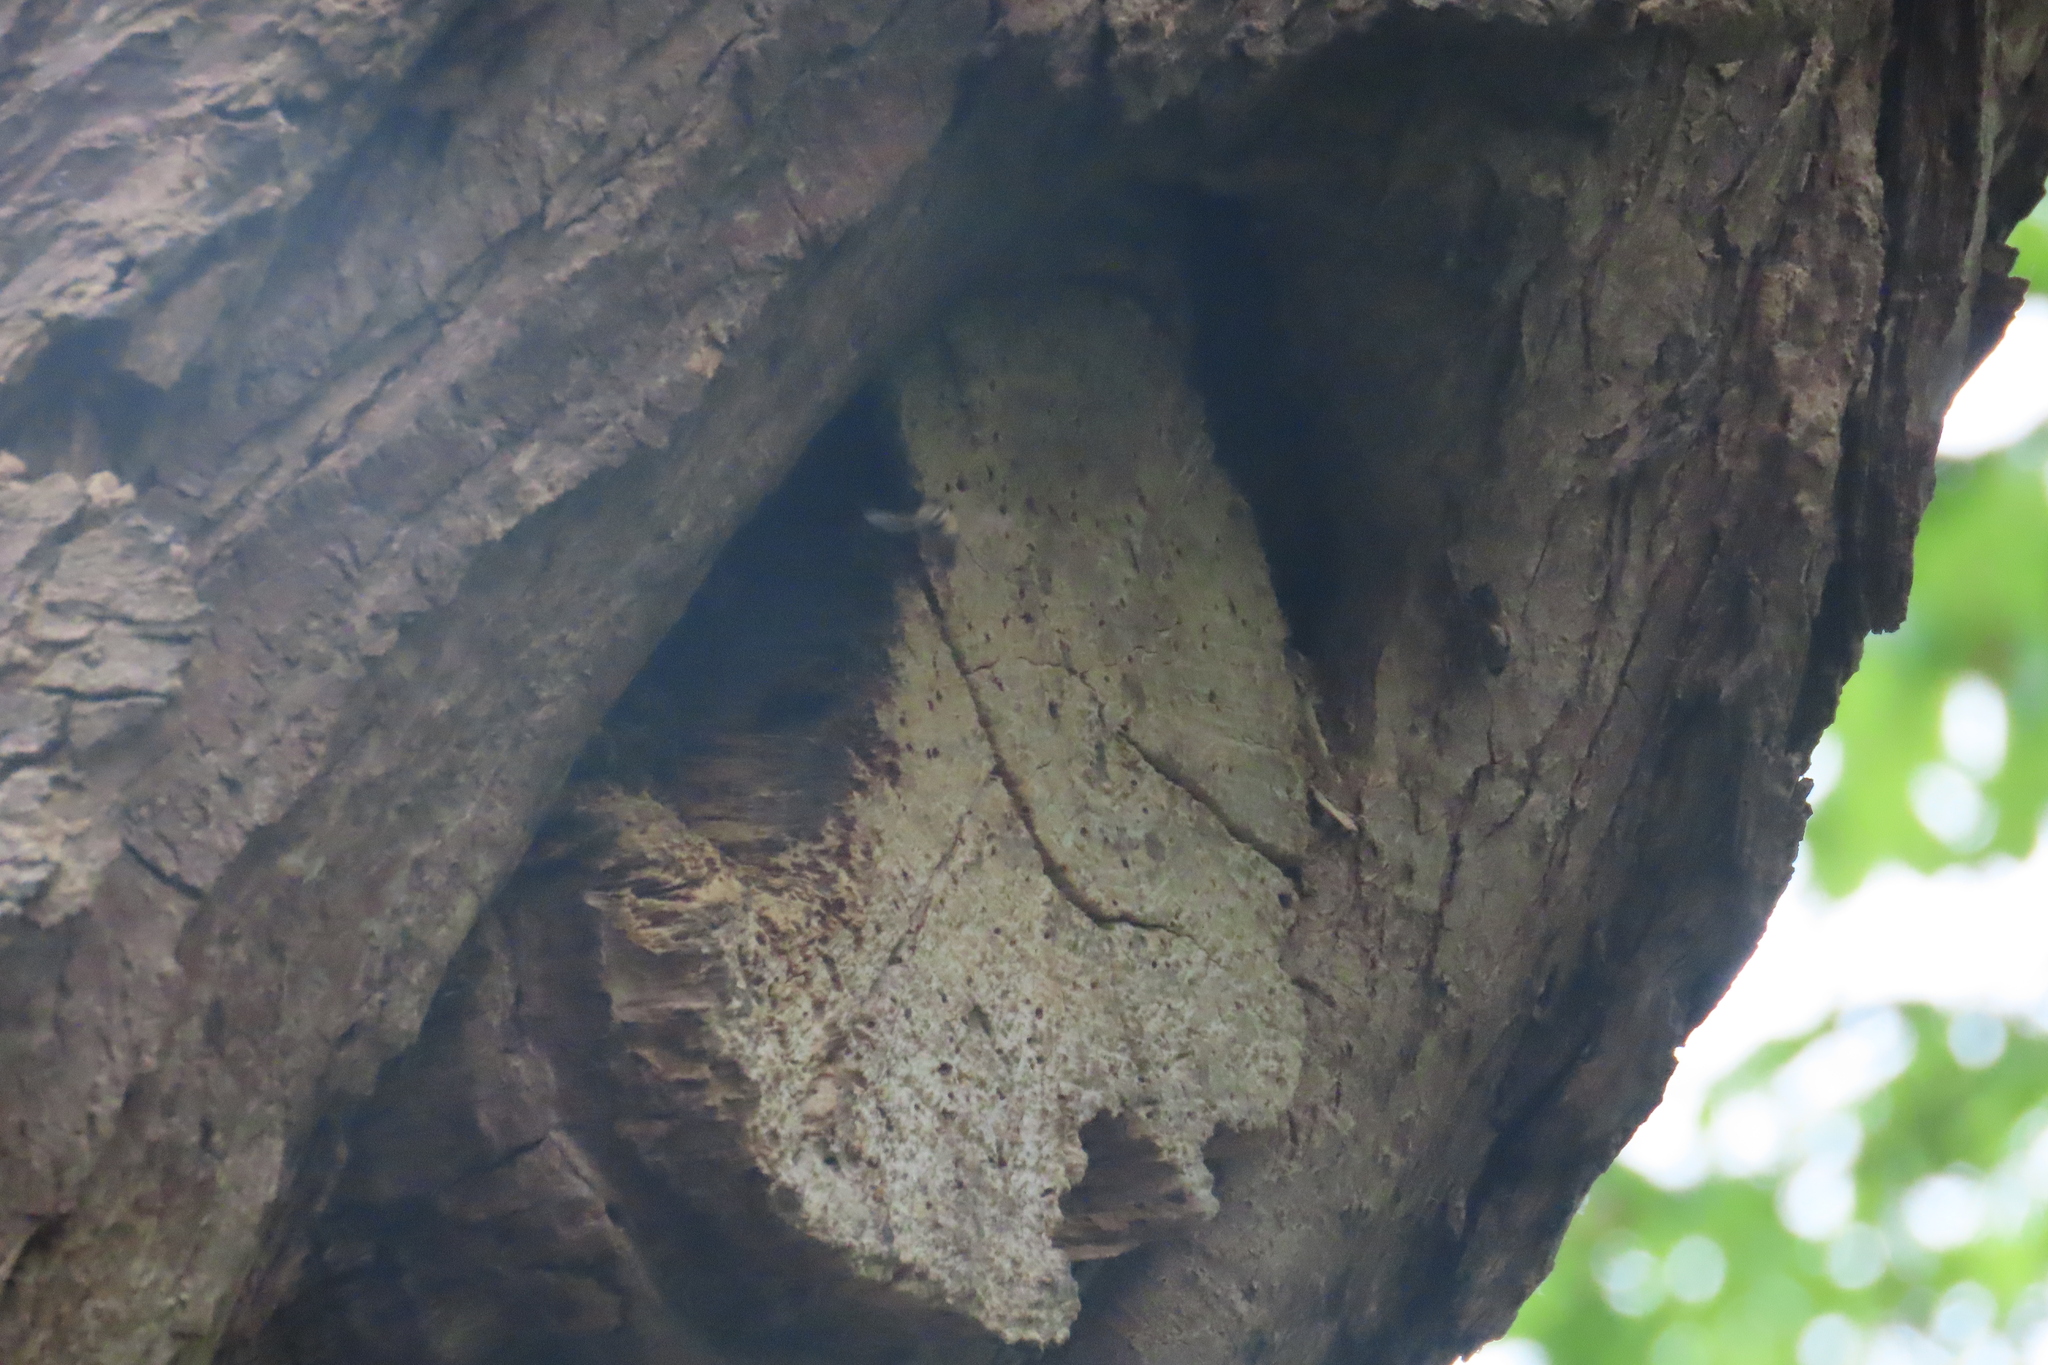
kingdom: Animalia
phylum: Arthropoda
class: Insecta
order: Hymenoptera
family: Apidae
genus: Apis
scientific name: Apis mellifera
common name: Honey bee
